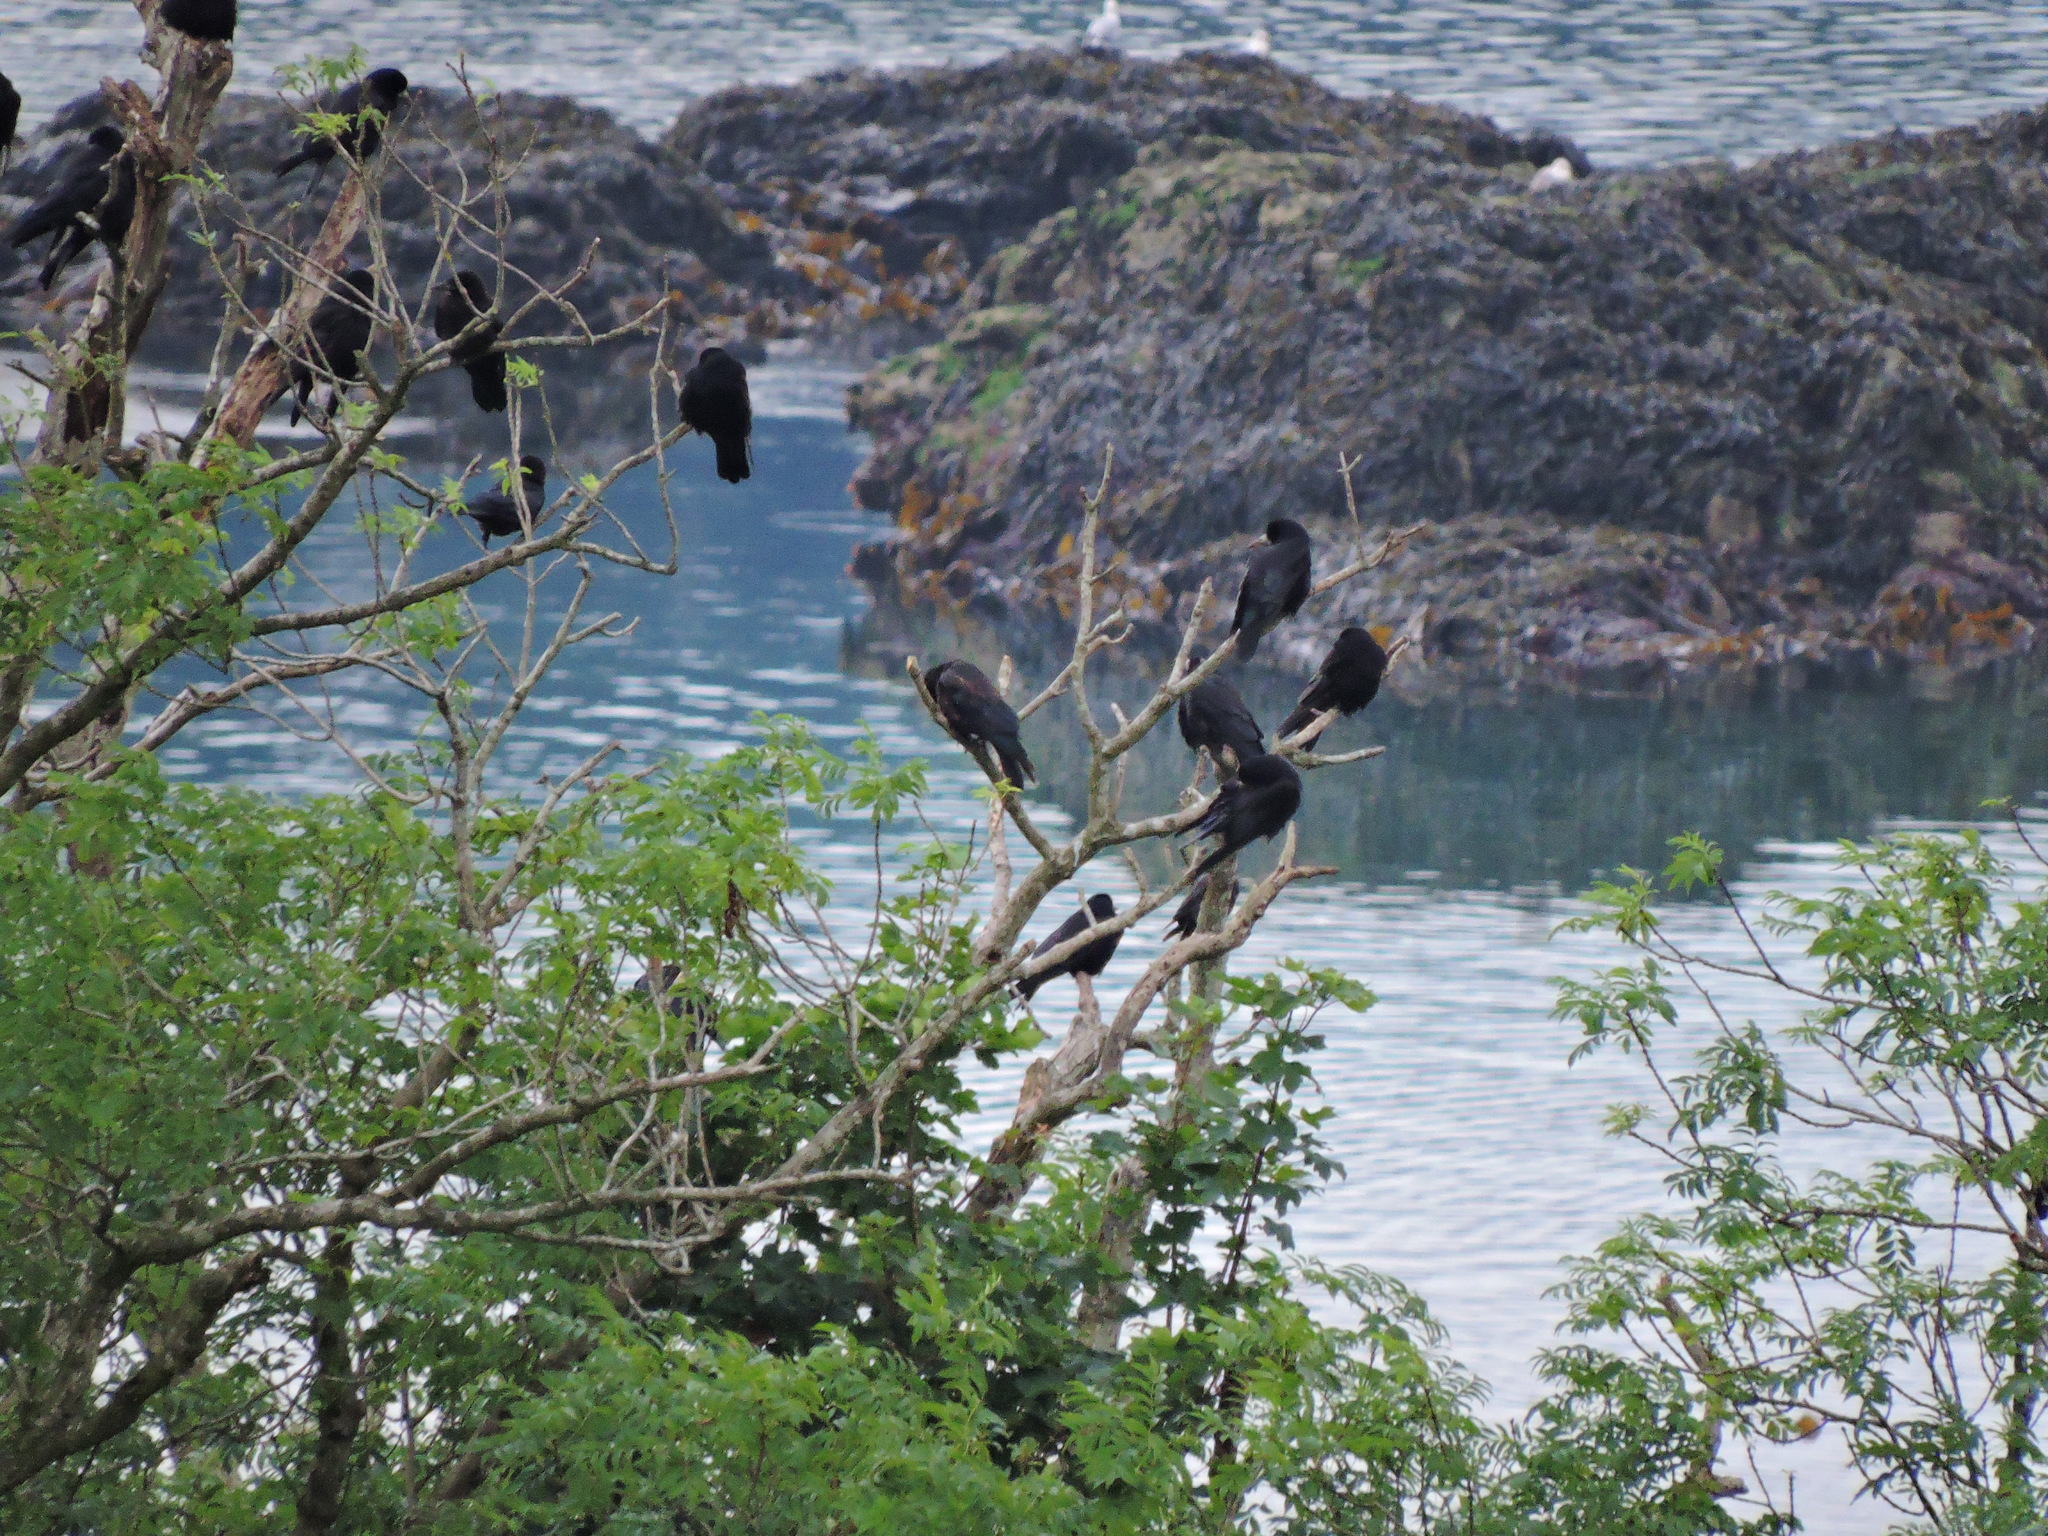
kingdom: Animalia
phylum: Chordata
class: Aves
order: Passeriformes
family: Corvidae
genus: Corvus
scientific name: Corvus frugilegus
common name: Rook
